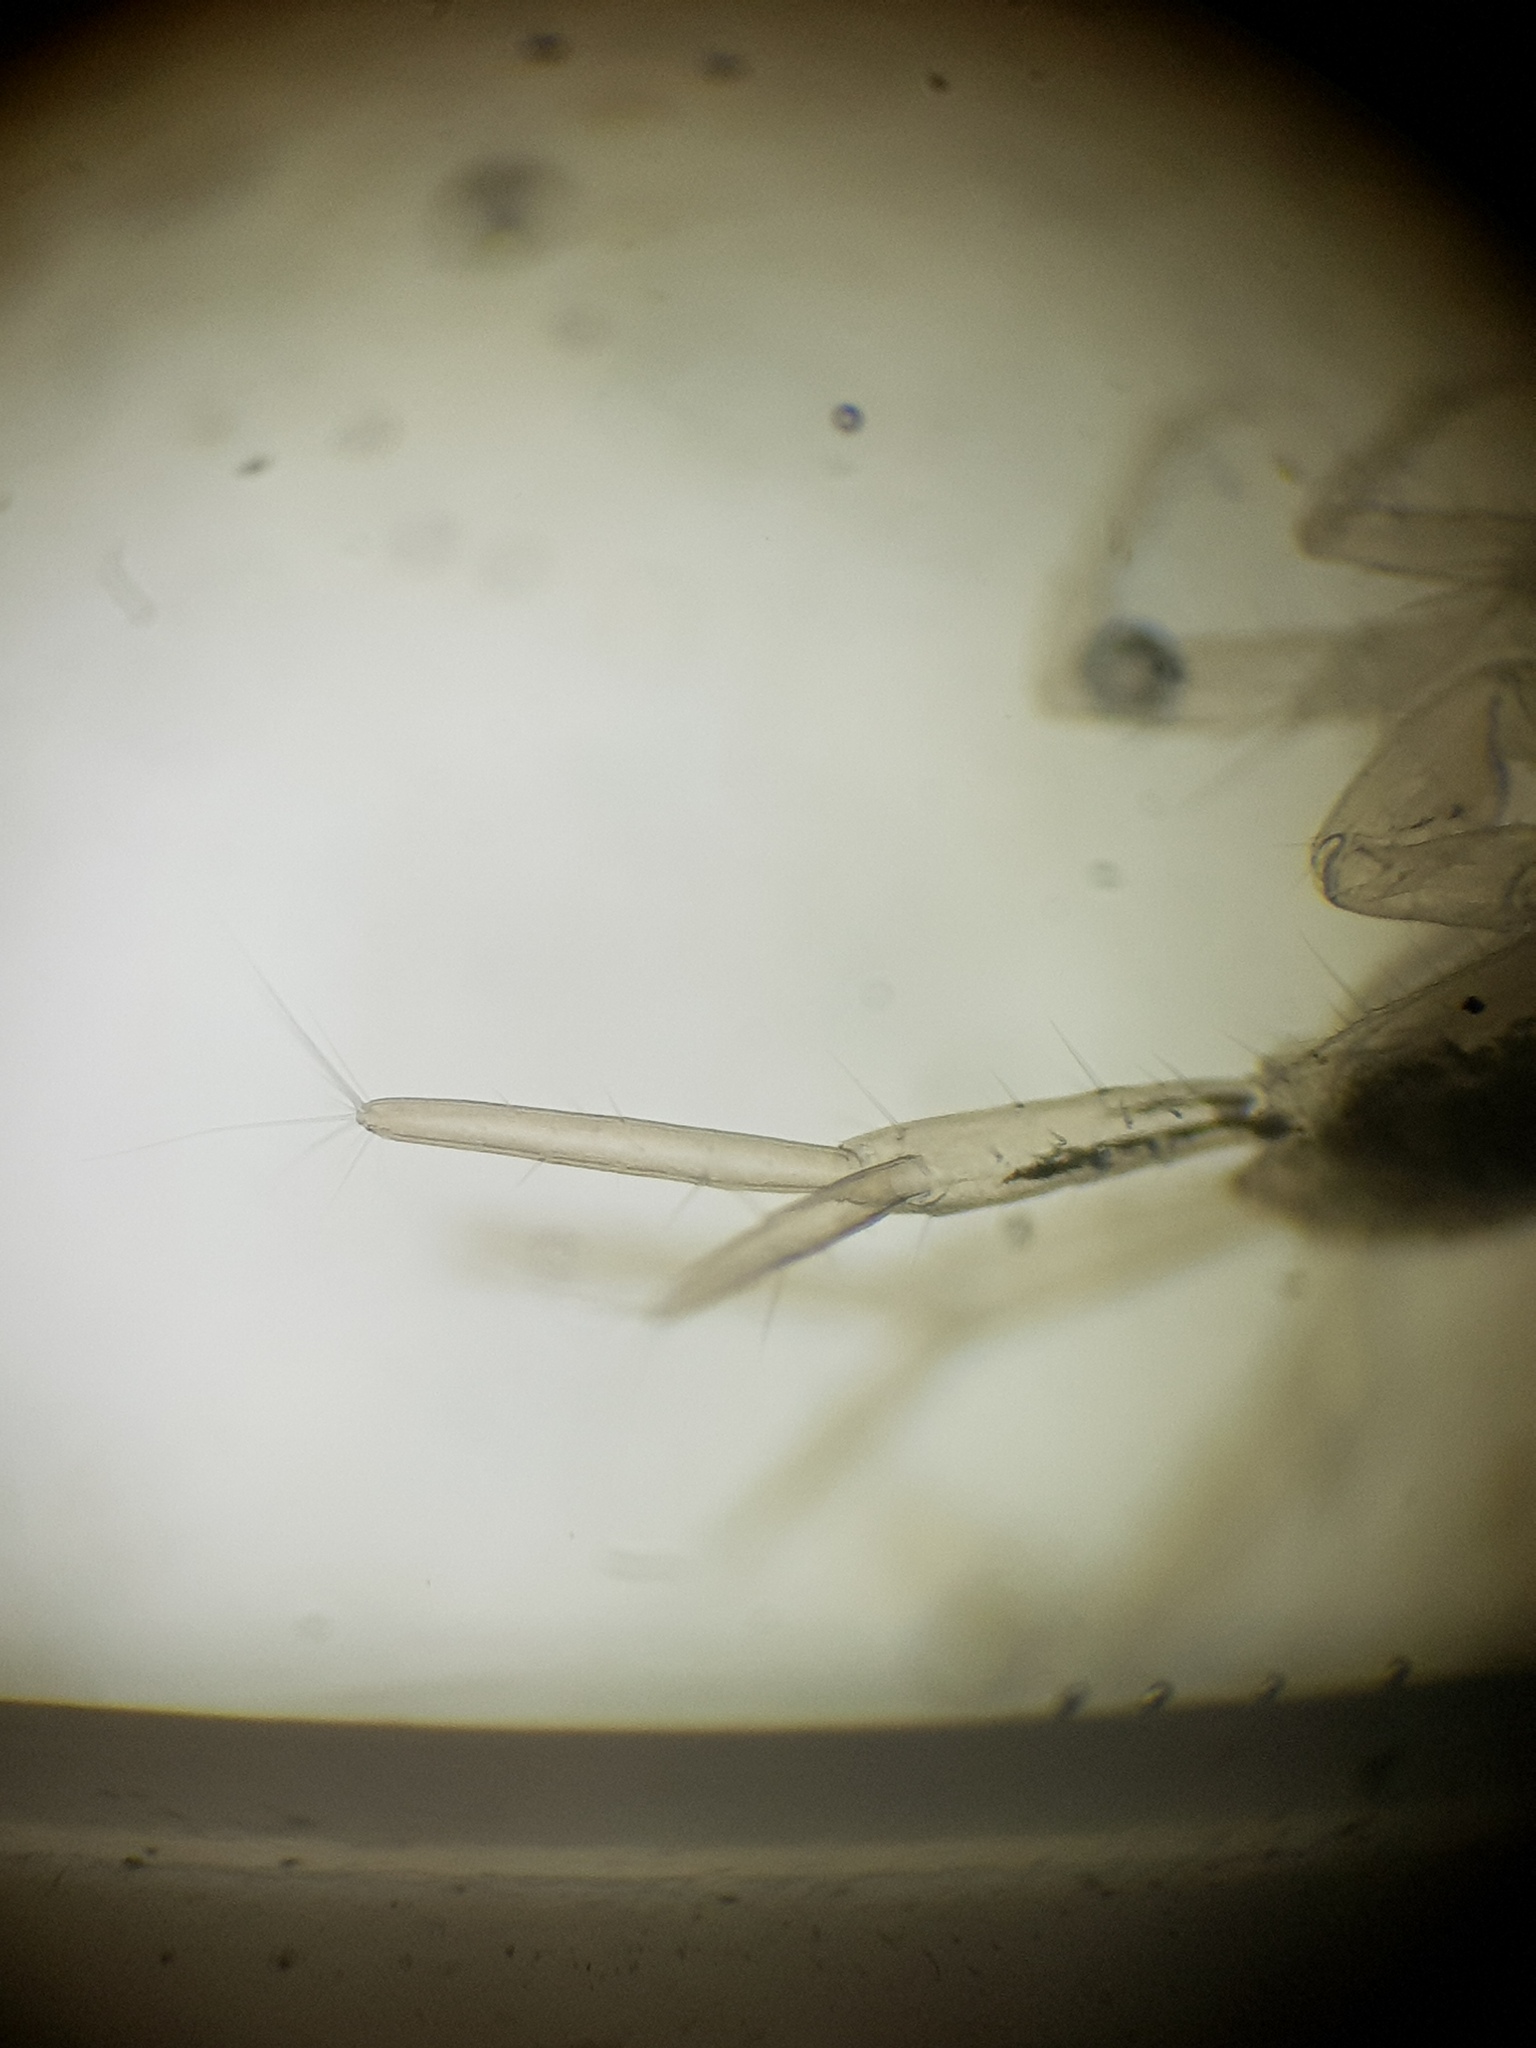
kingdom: Animalia
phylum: Arthropoda
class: Malacostraca
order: Isopoda
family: Asellidae
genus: Caecidotea
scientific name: Caecidotea pricei
